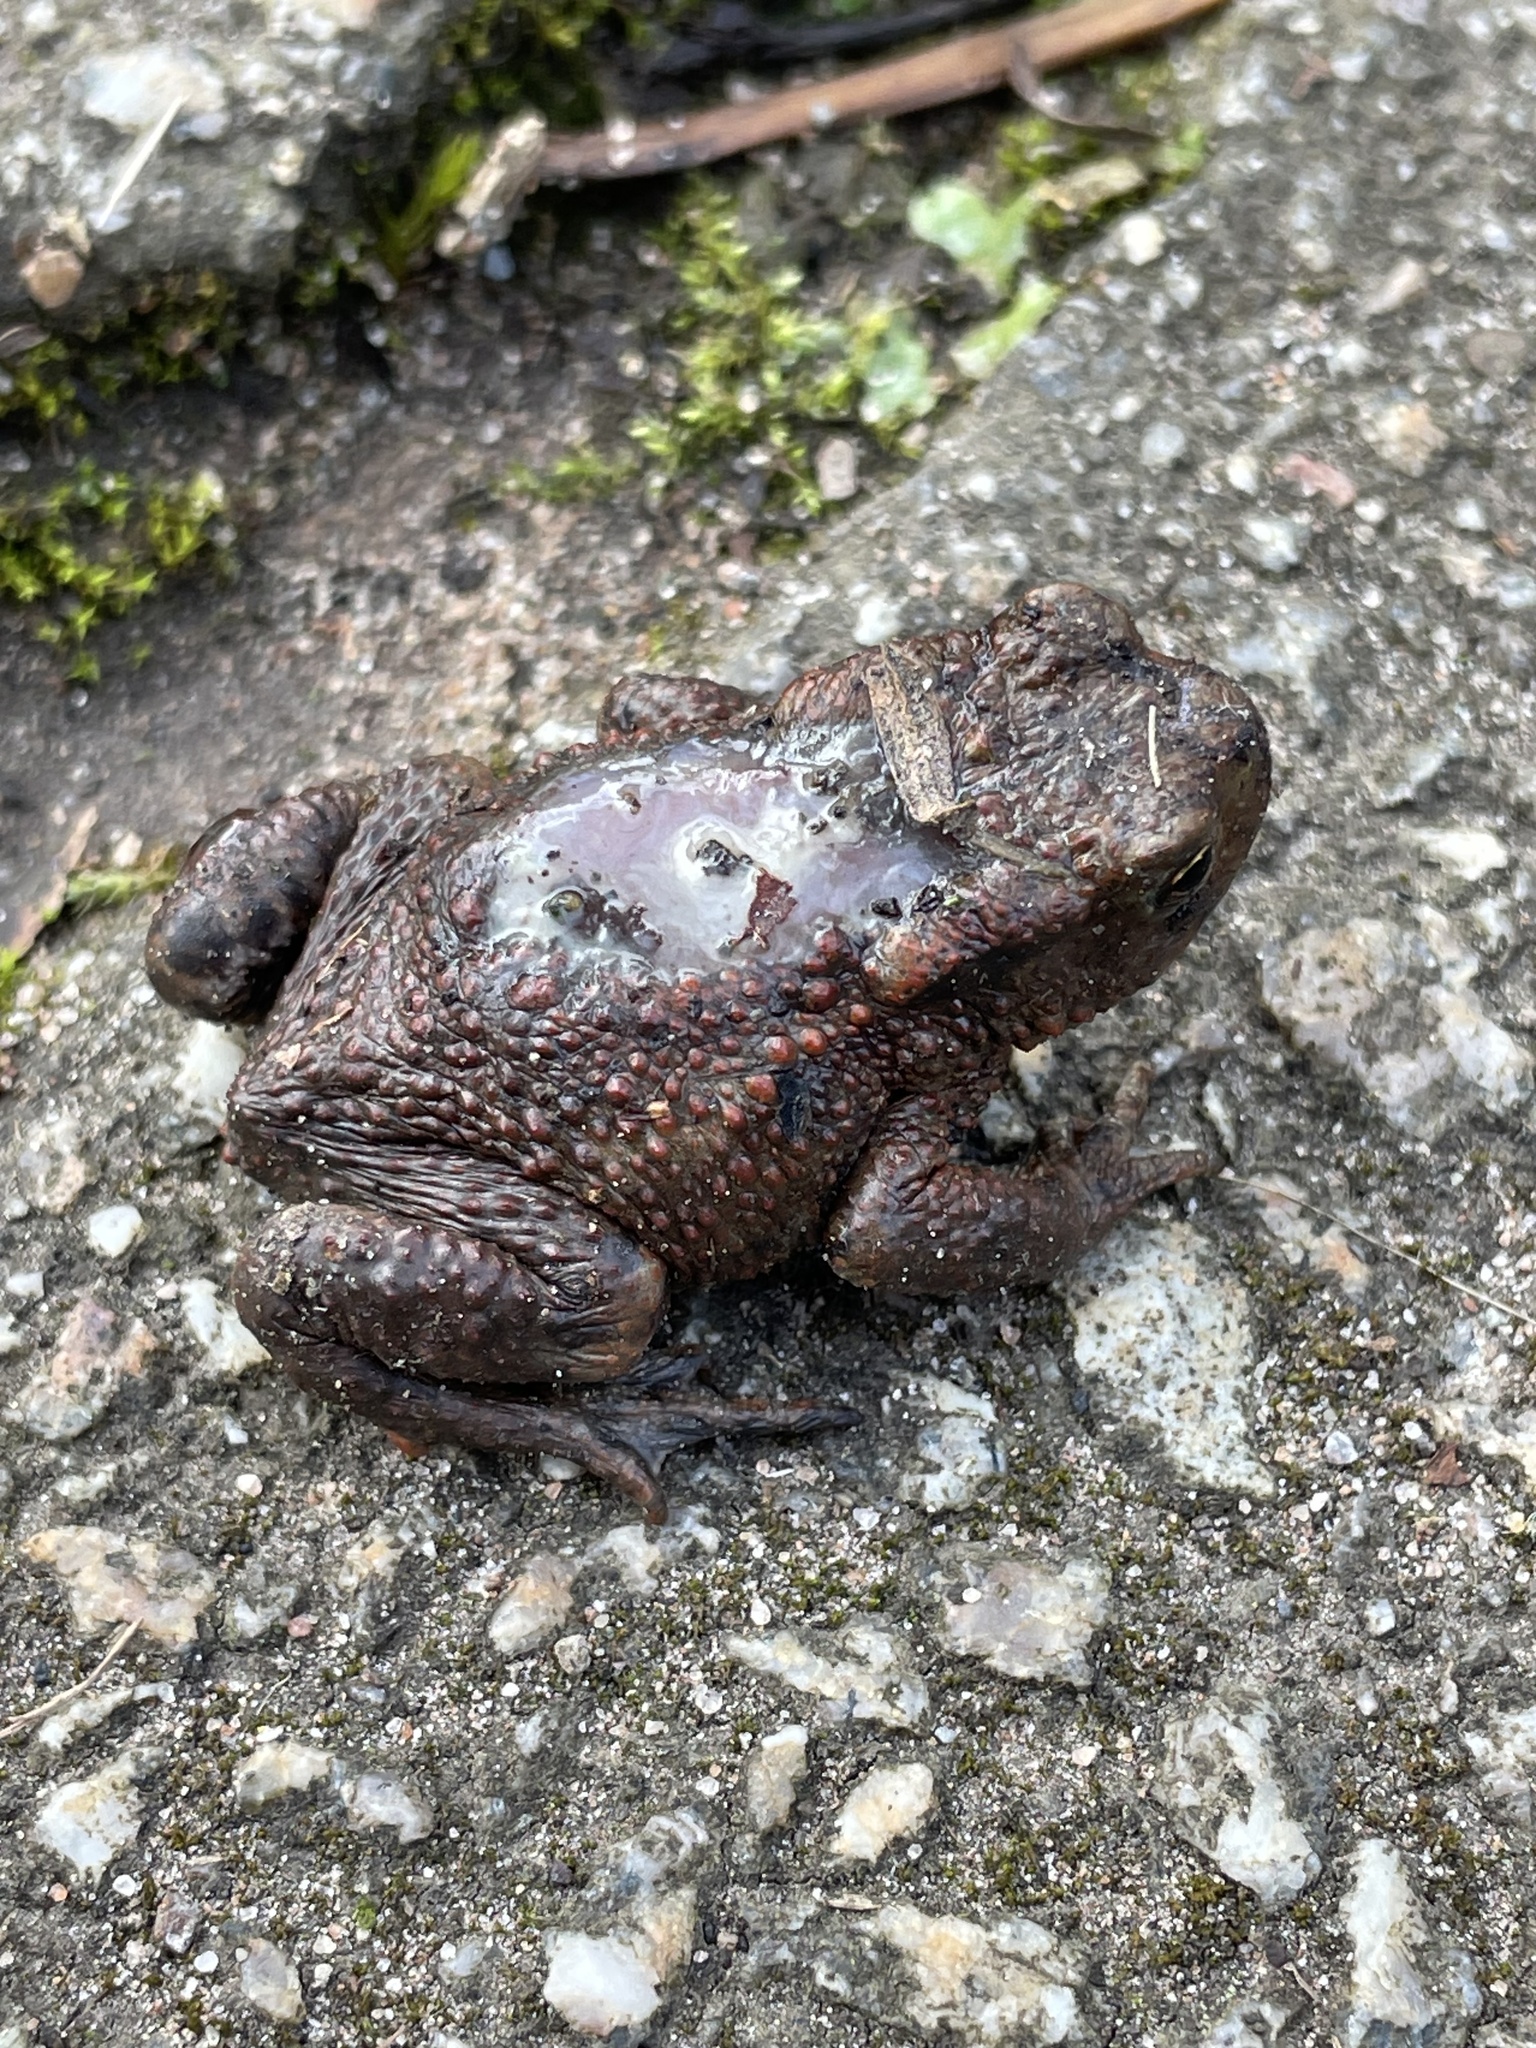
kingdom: Animalia
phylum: Chordata
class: Amphibia
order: Anura
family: Bufonidae
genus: Bufo
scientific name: Bufo bufo
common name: Common toad
